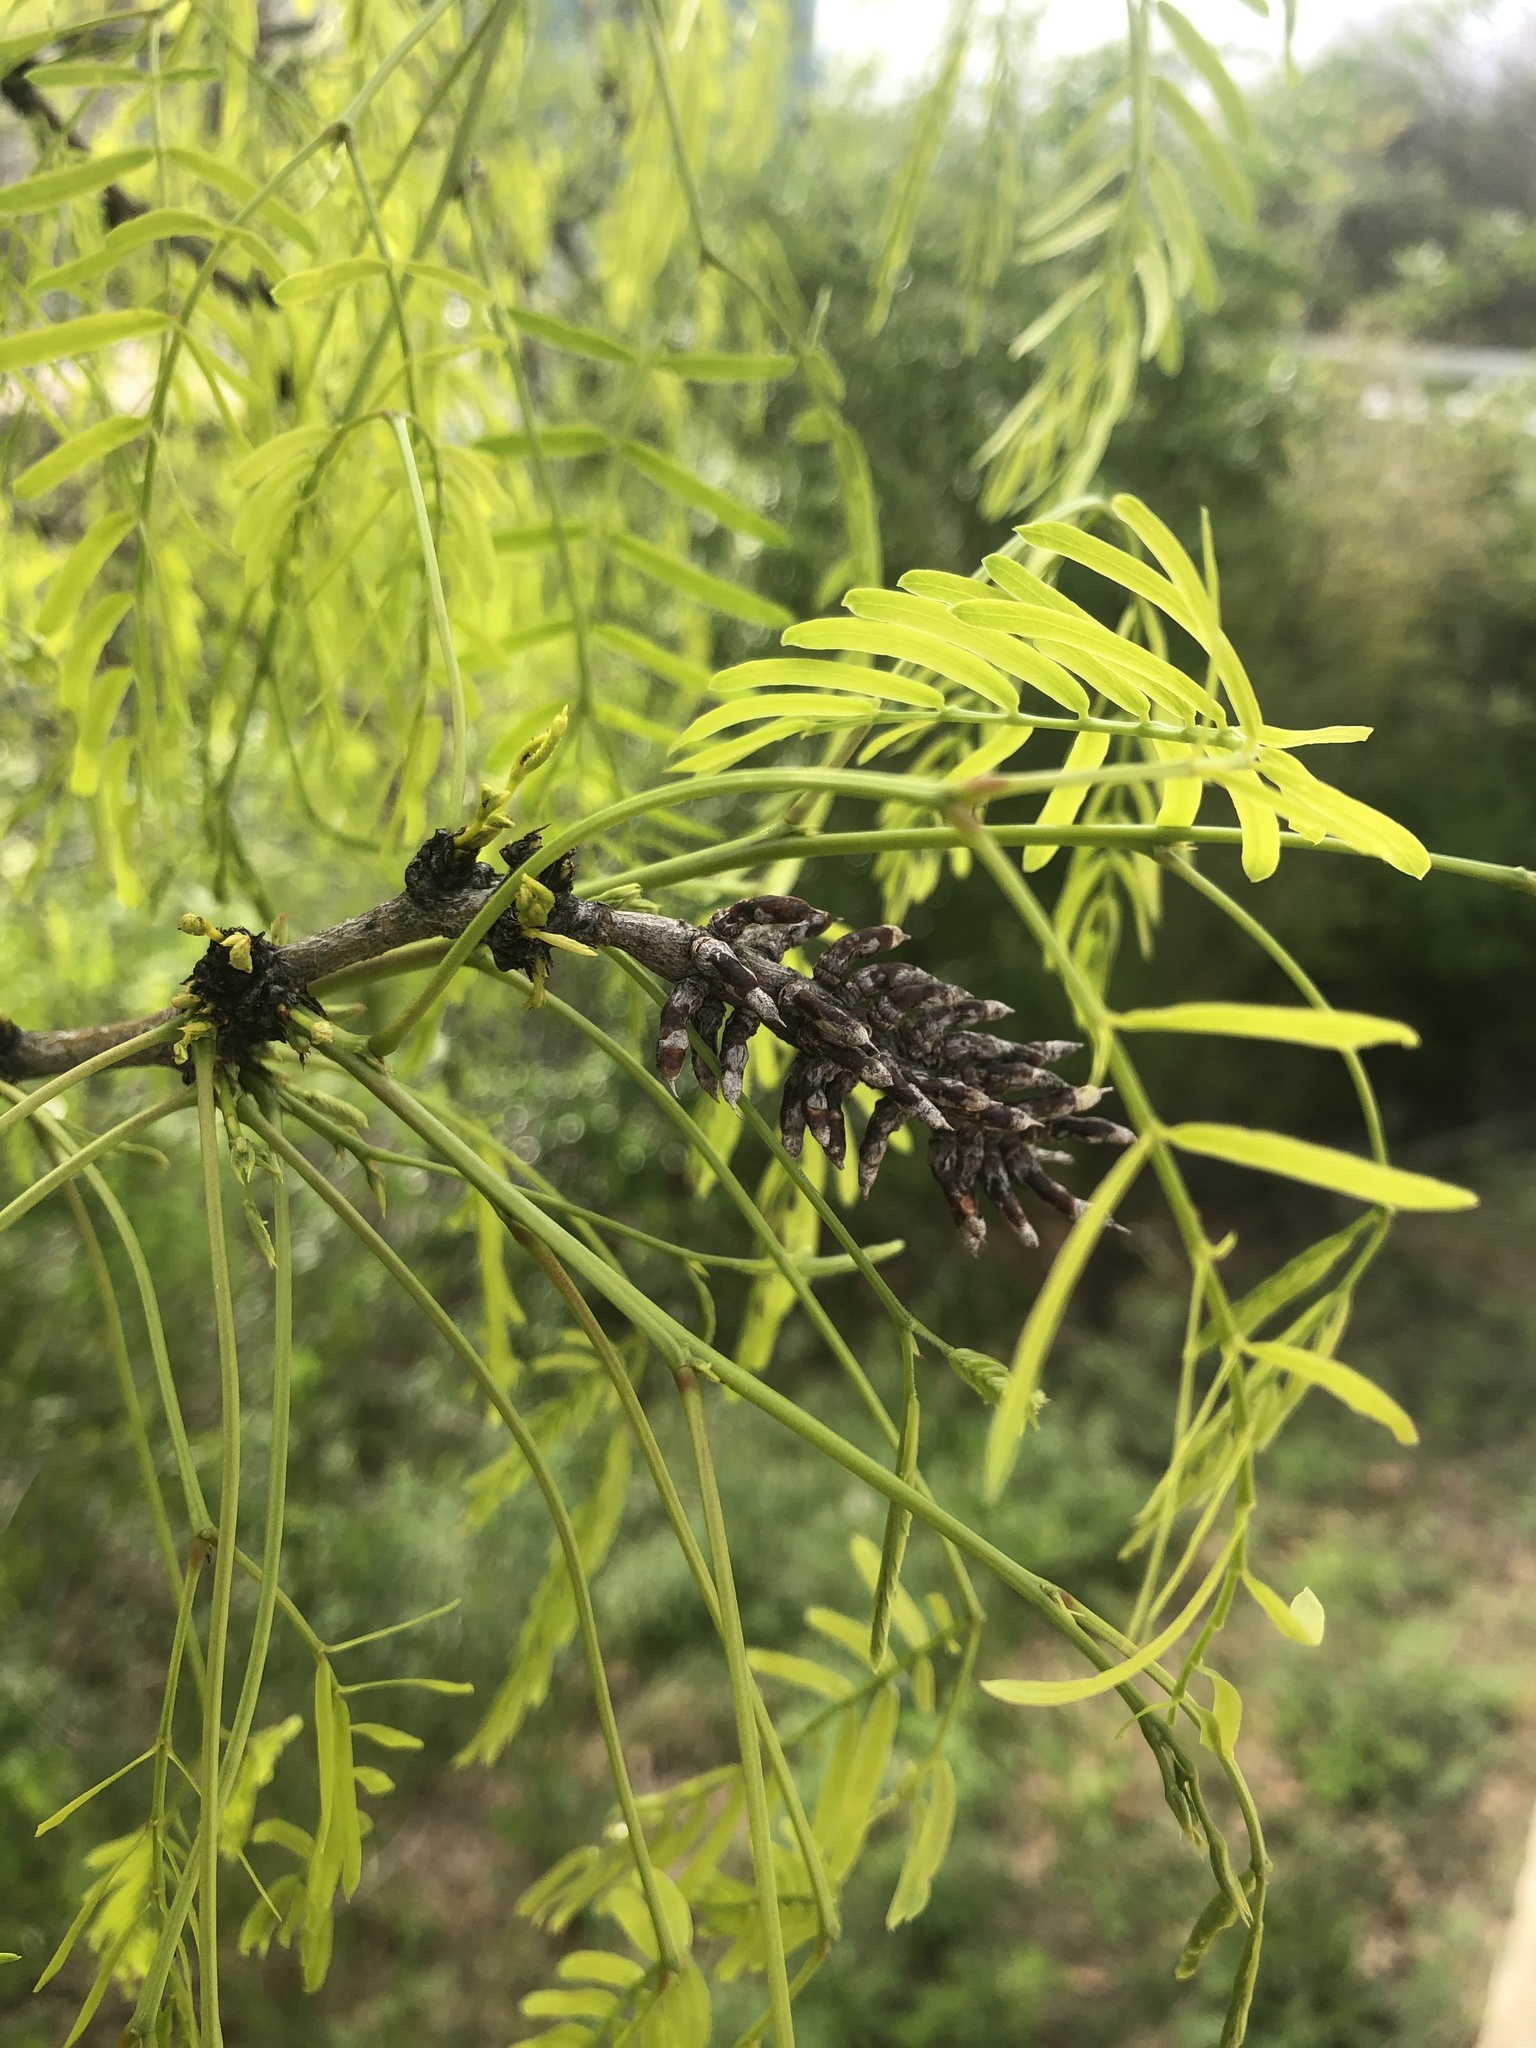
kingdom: Plantae
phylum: Tracheophyta
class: Magnoliopsida
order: Fabales
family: Fabaceae
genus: Prosopis
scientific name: Prosopis glandulosa
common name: Honey mesquite
